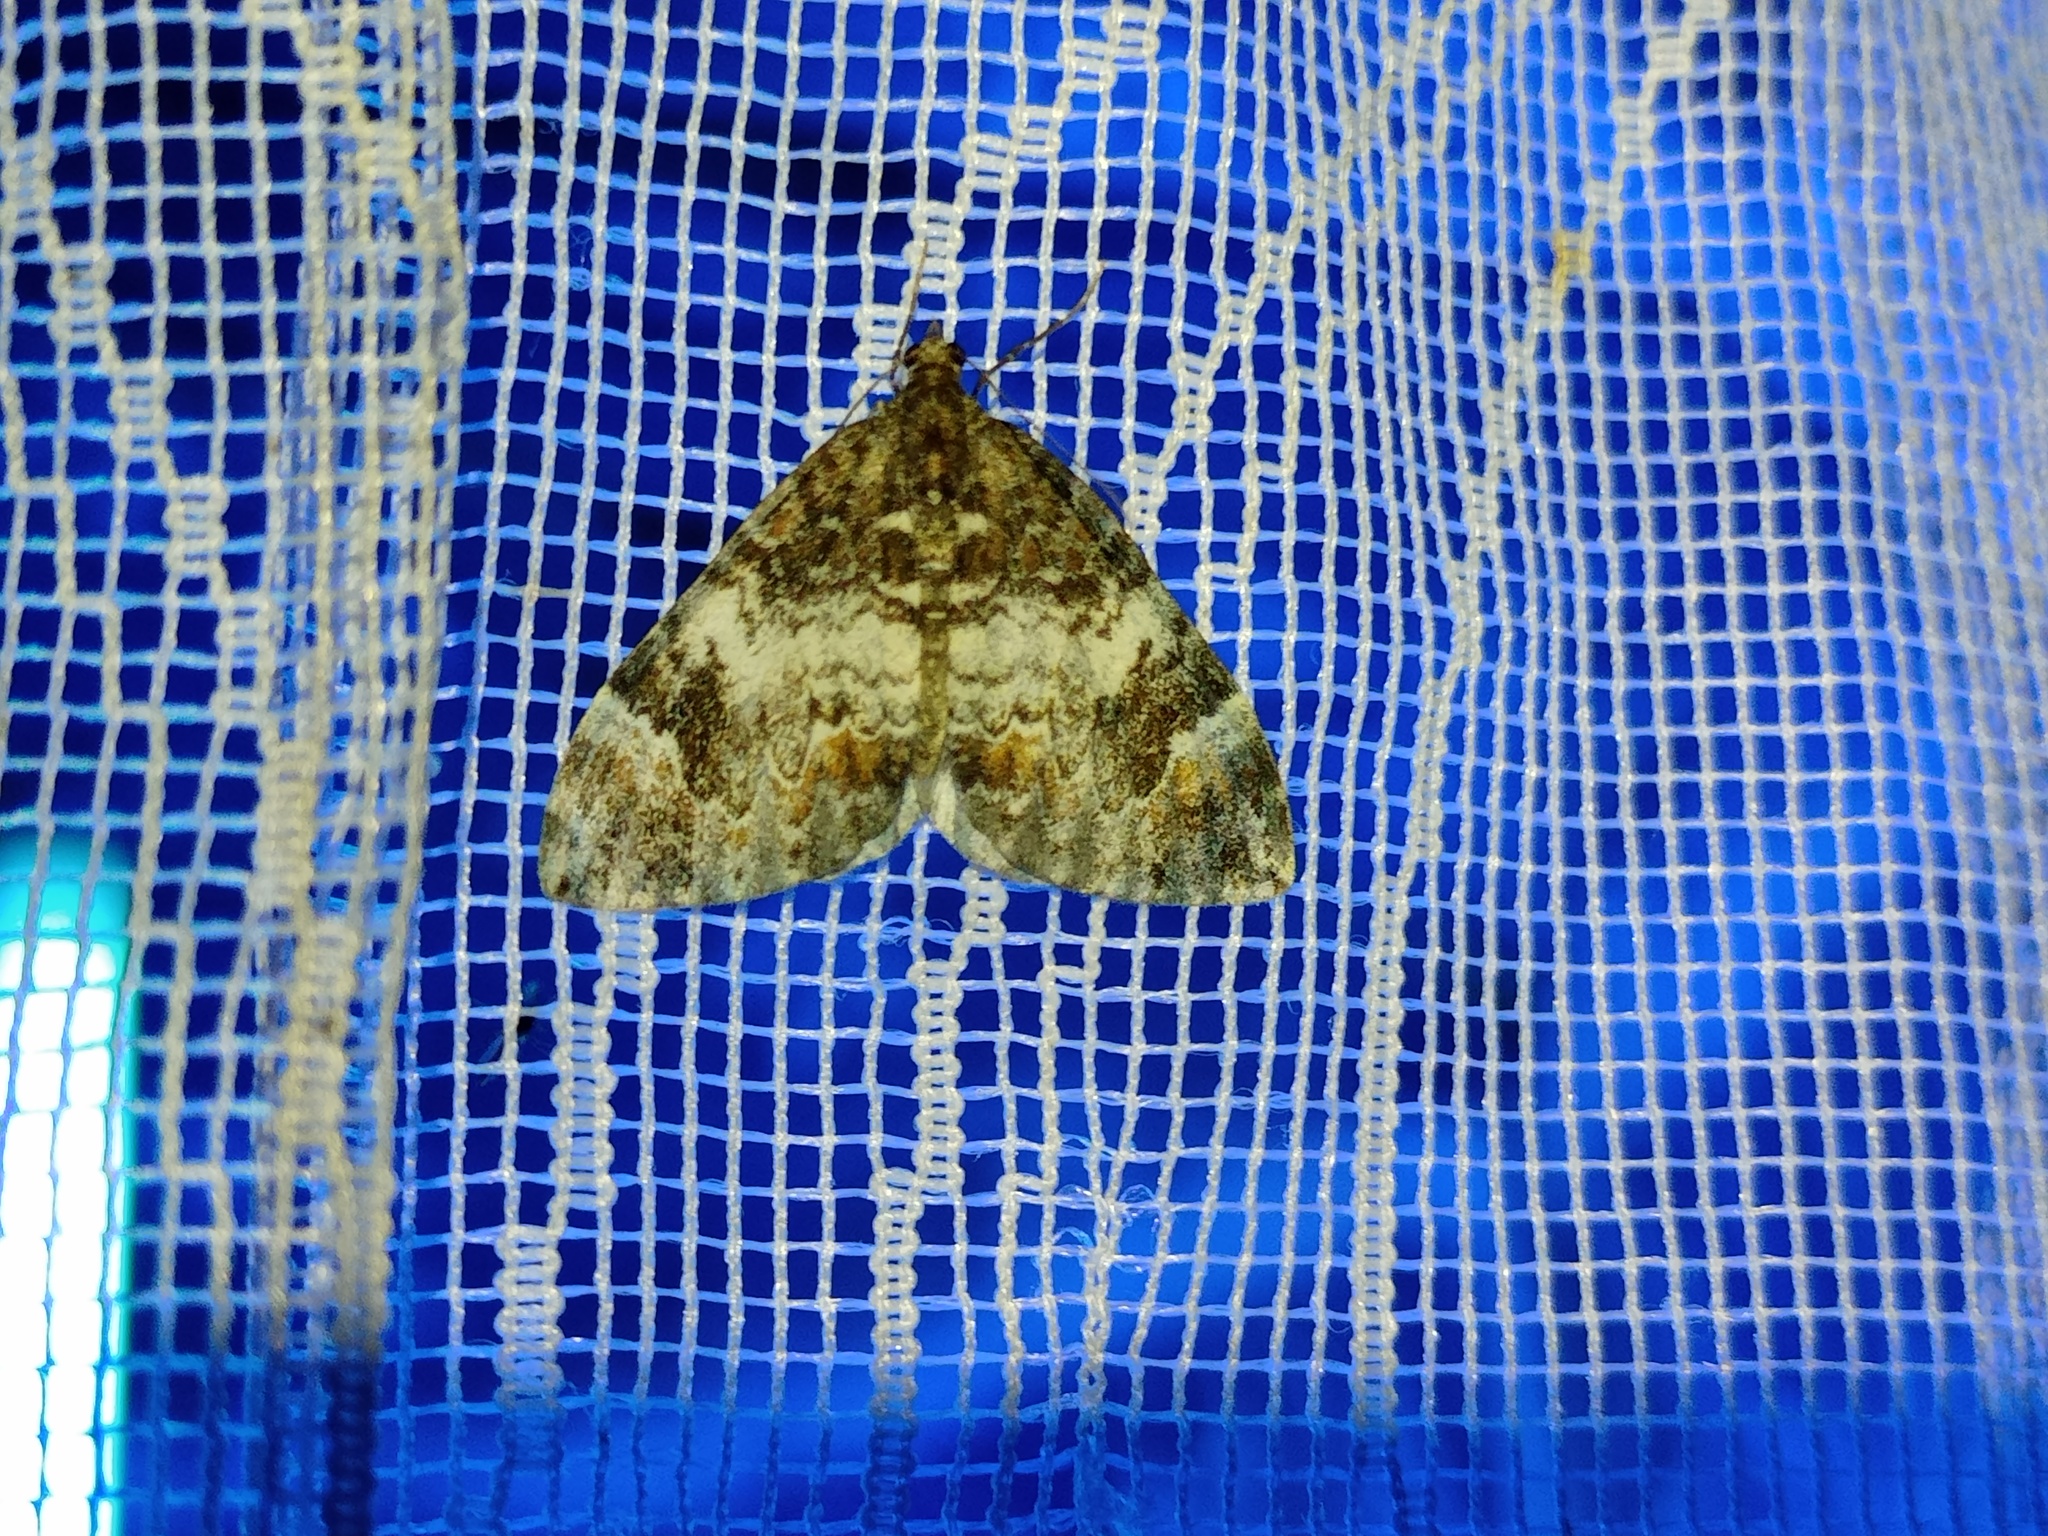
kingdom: Animalia
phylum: Arthropoda
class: Insecta
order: Lepidoptera
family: Geometridae
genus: Dysstroma
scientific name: Dysstroma truncata
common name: Common marbled carpet
